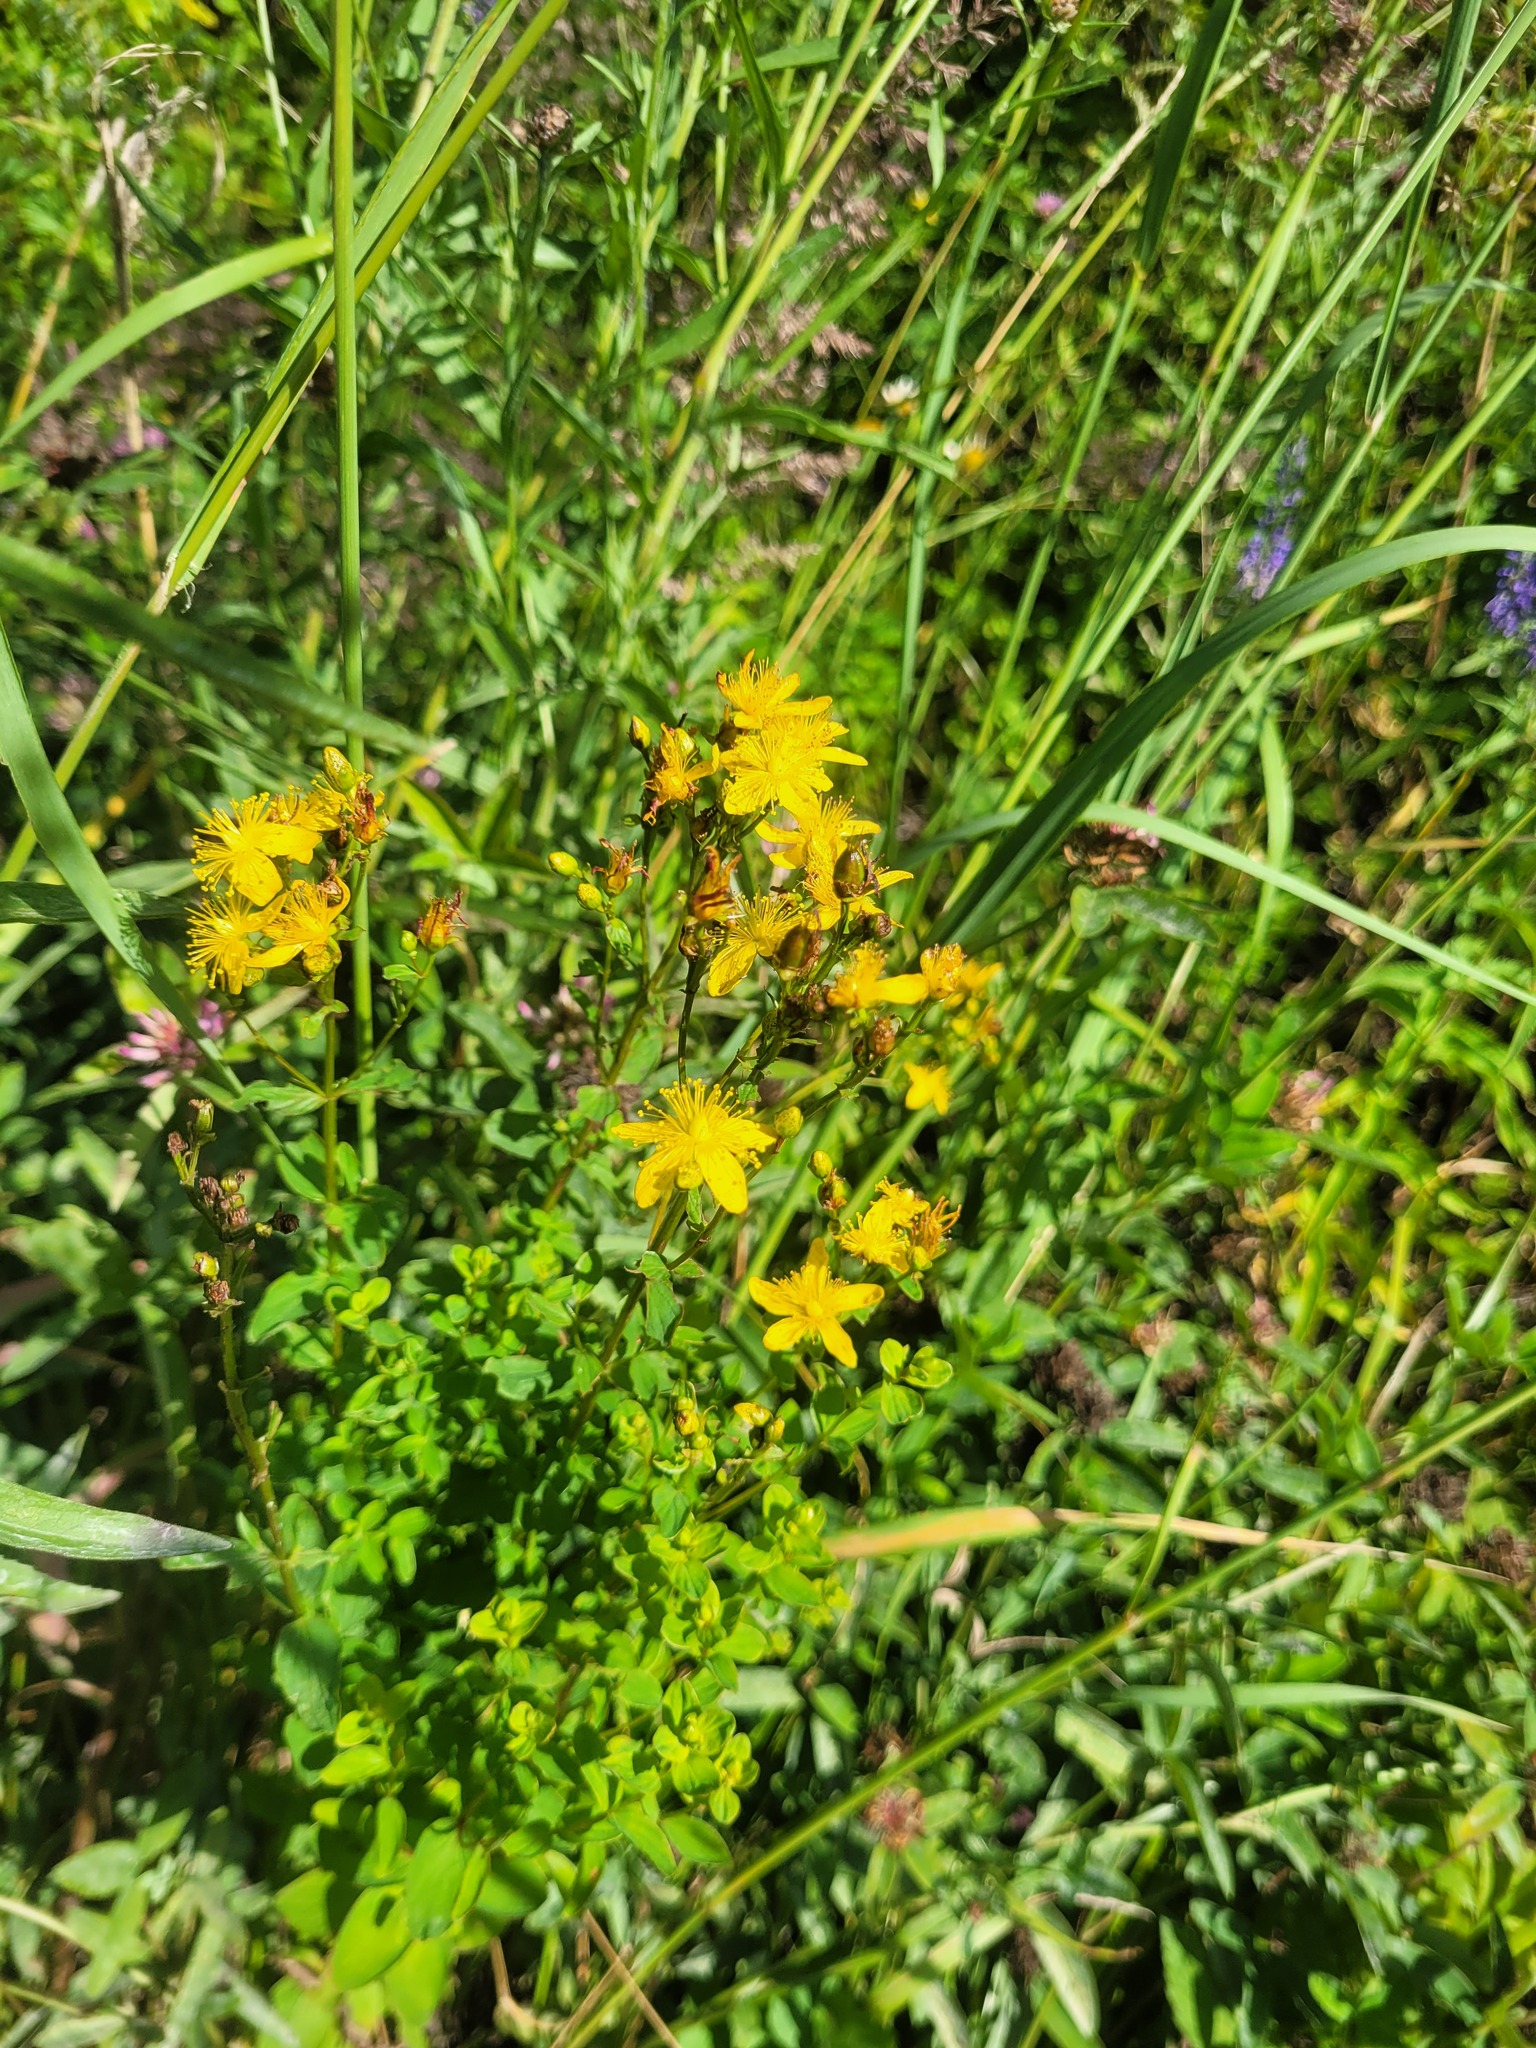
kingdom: Plantae
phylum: Tracheophyta
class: Magnoliopsida
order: Malpighiales
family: Hypericaceae
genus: Hypericum
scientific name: Hypericum maculatum
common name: Imperforate st. john's-wort
